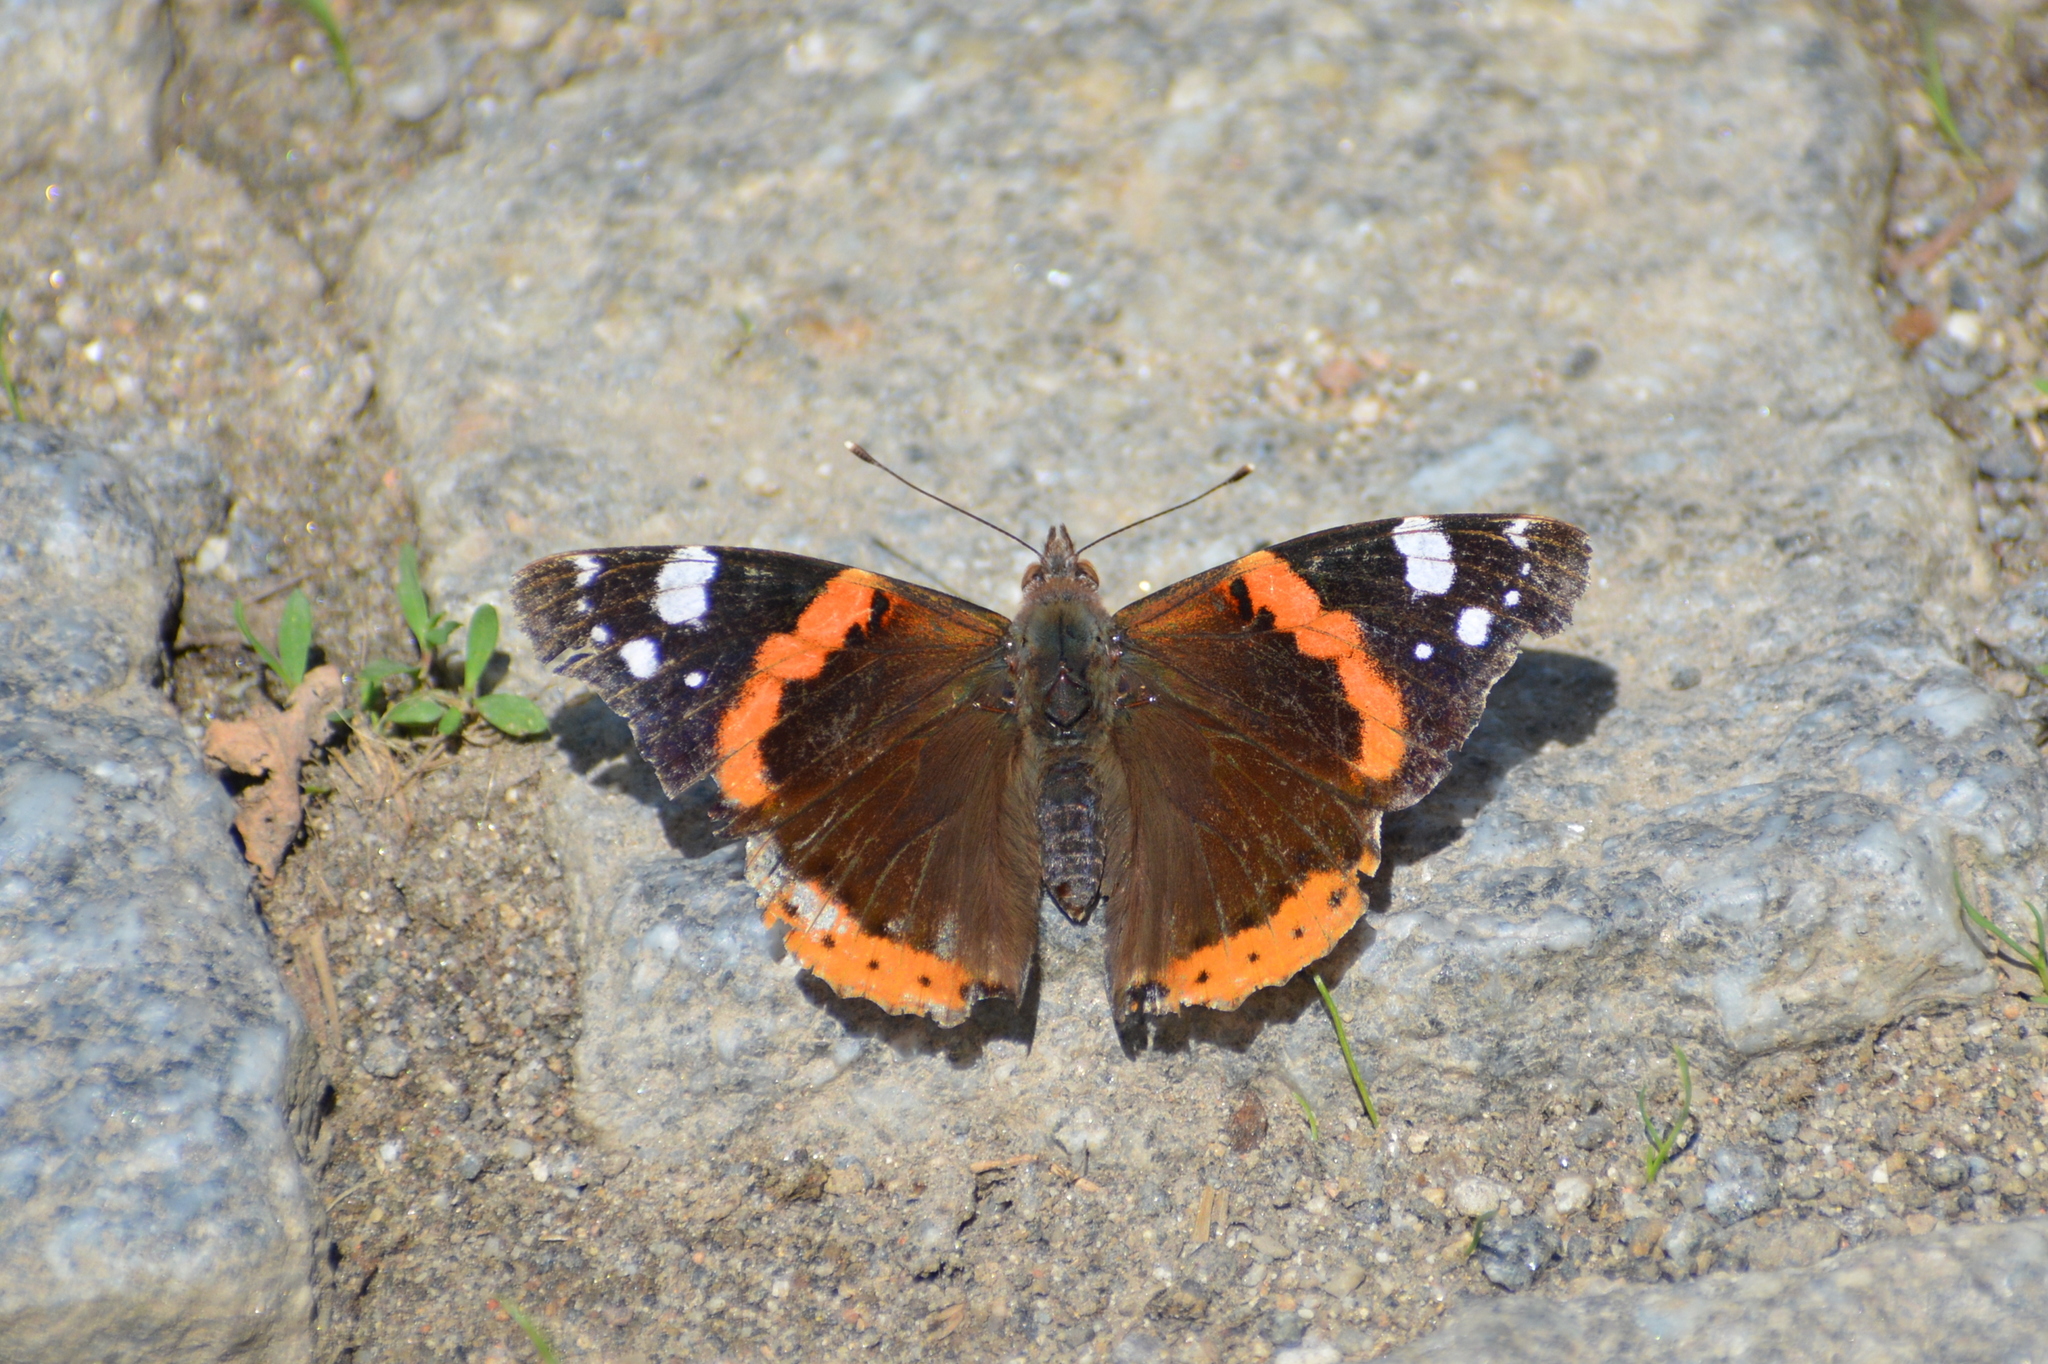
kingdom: Animalia
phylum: Arthropoda
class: Insecta
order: Lepidoptera
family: Nymphalidae
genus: Vanessa
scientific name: Vanessa atalanta
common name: Red admiral
